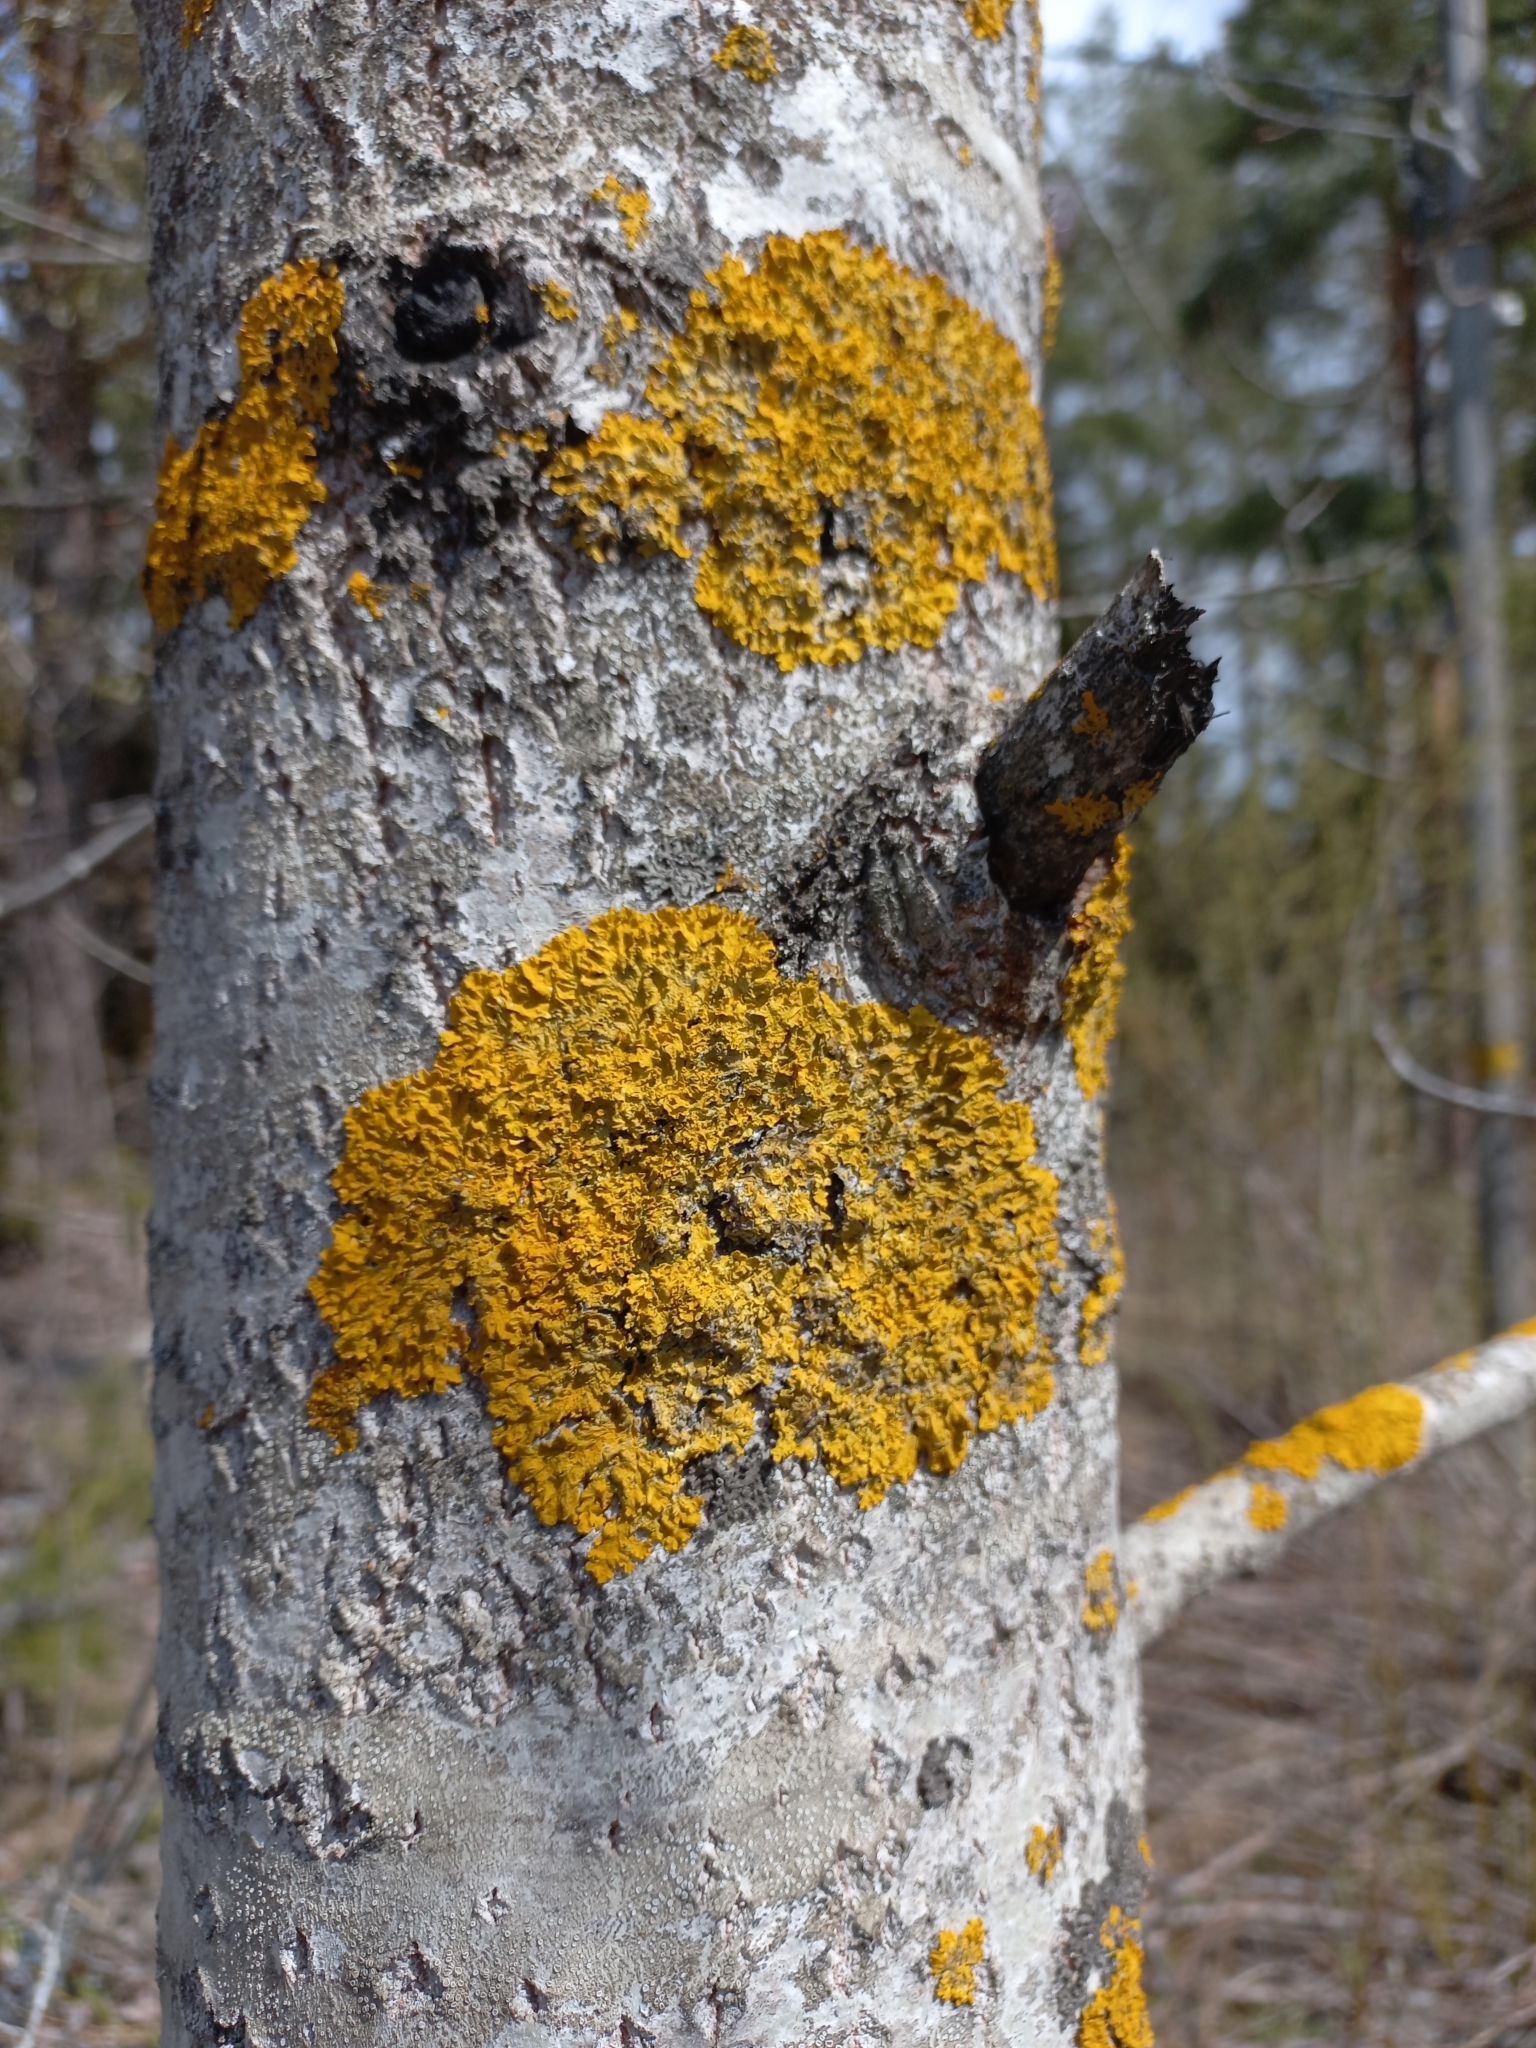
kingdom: Fungi
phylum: Ascomycota
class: Lecanoromycetes
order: Teloschistales
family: Teloschistaceae
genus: Xanthoria
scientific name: Xanthoria parietina
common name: Common orange lichen
